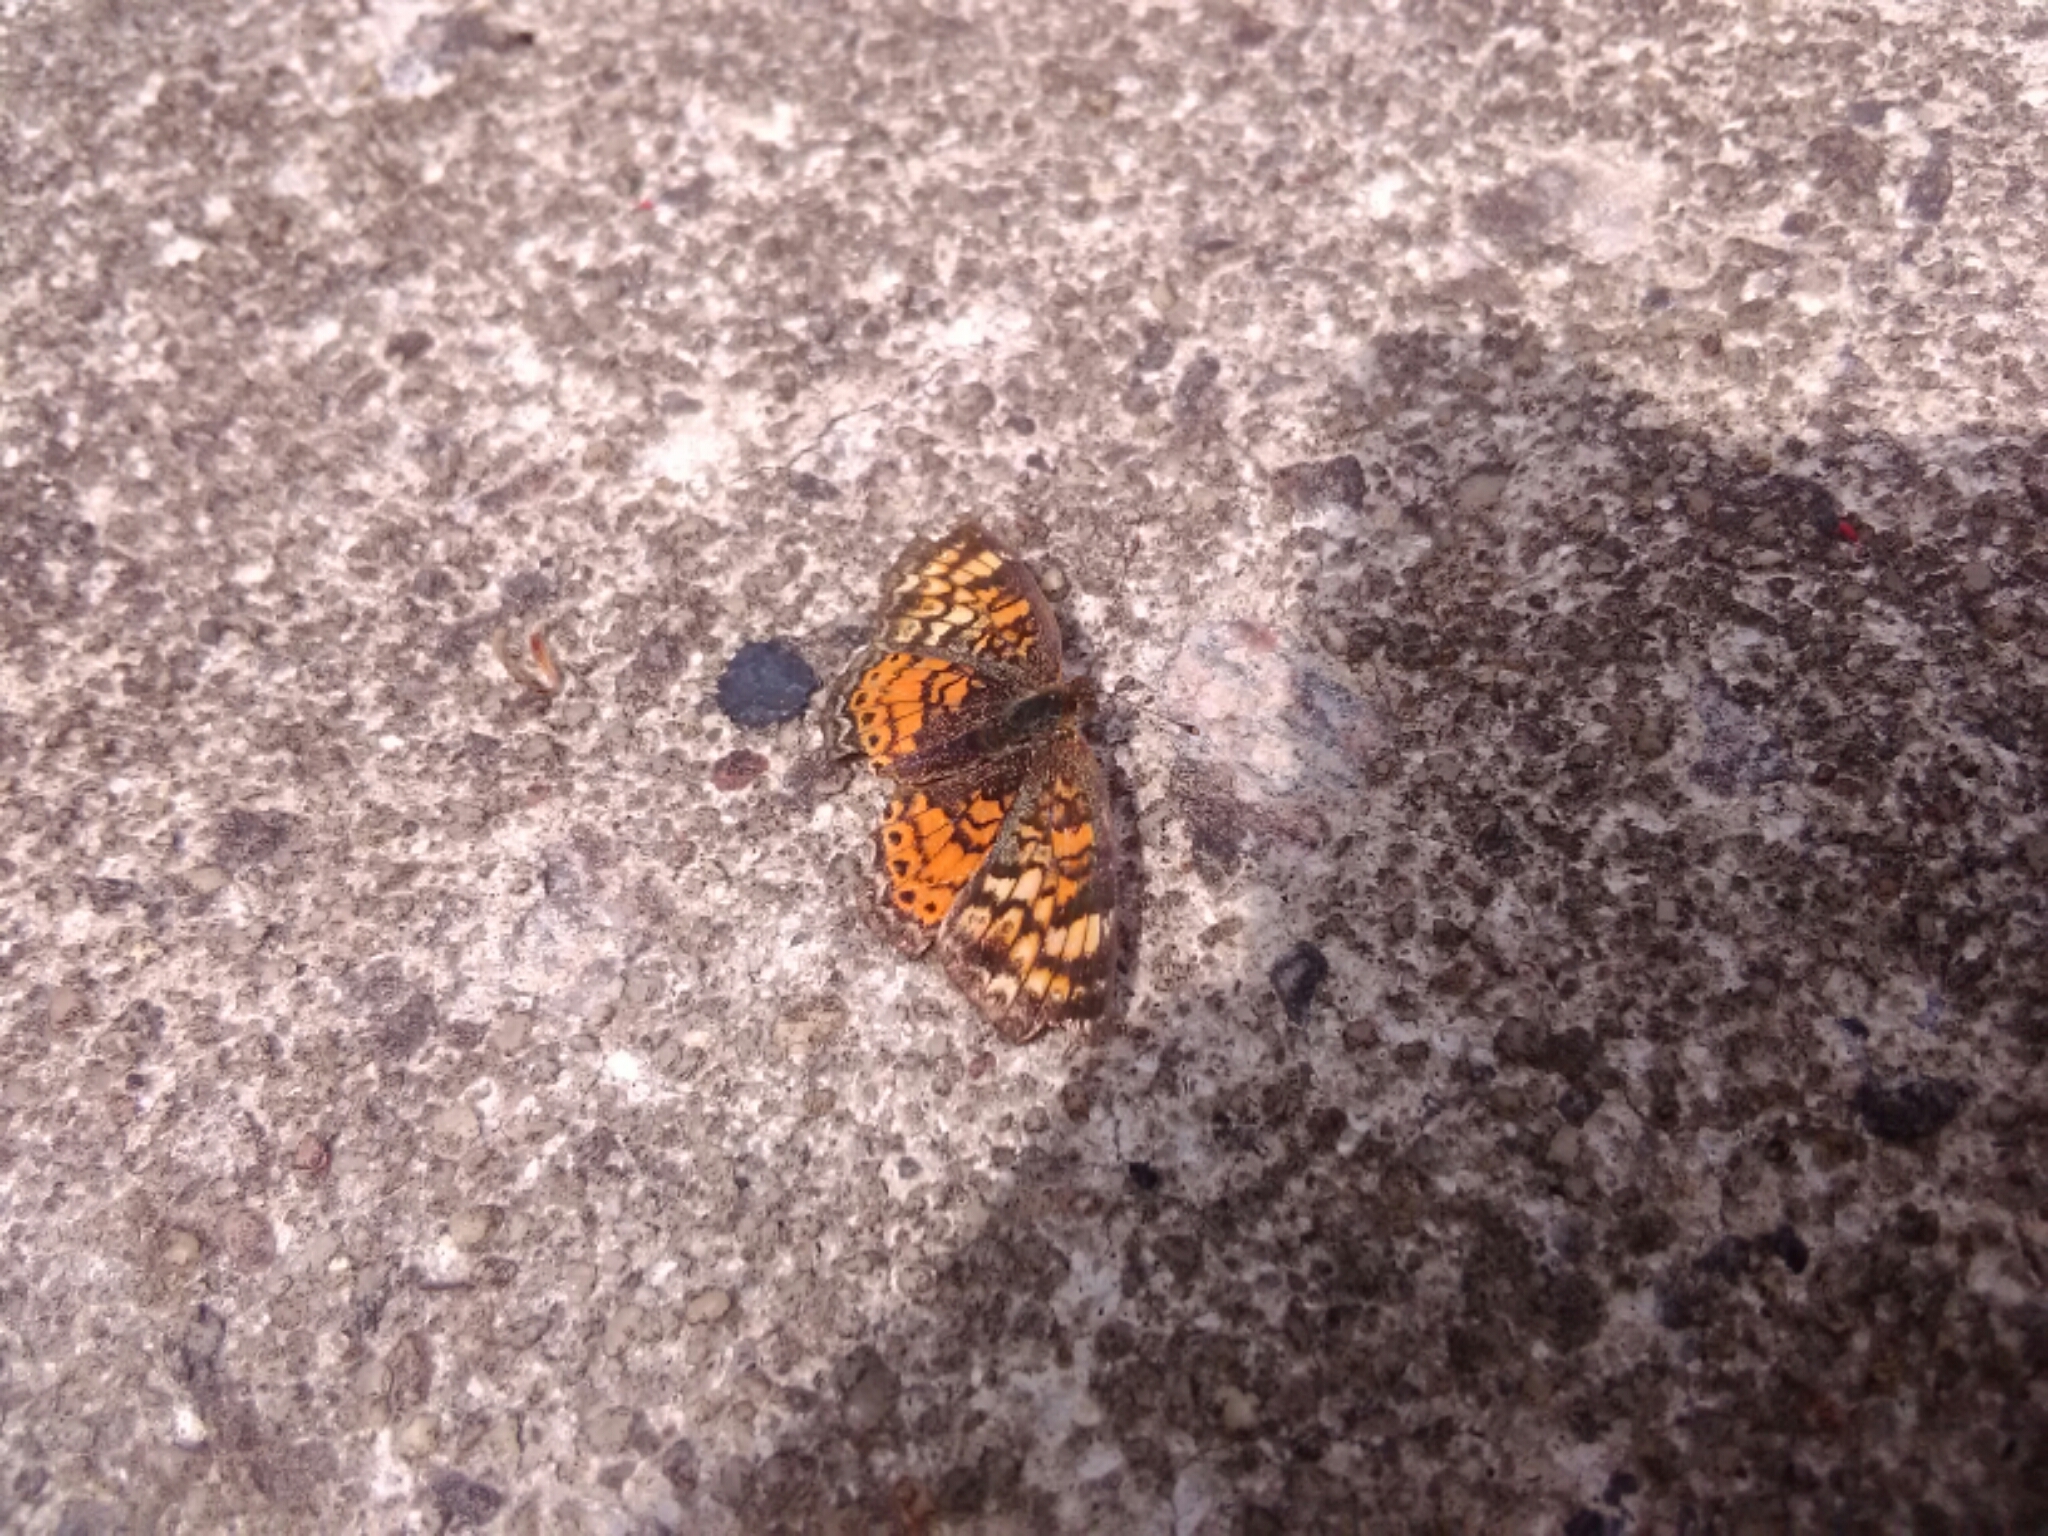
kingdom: Animalia
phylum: Arthropoda
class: Insecta
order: Lepidoptera
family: Nymphalidae
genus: Phyciodes
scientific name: Phyciodes tharos
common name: Pearl crescent
